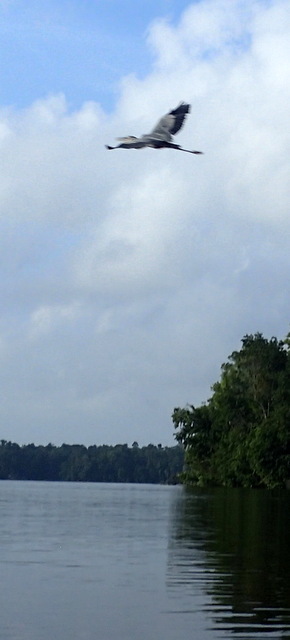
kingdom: Animalia
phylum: Chordata
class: Aves
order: Pelecaniformes
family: Ardeidae
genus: Ardea
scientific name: Ardea herodias
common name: Great blue heron
